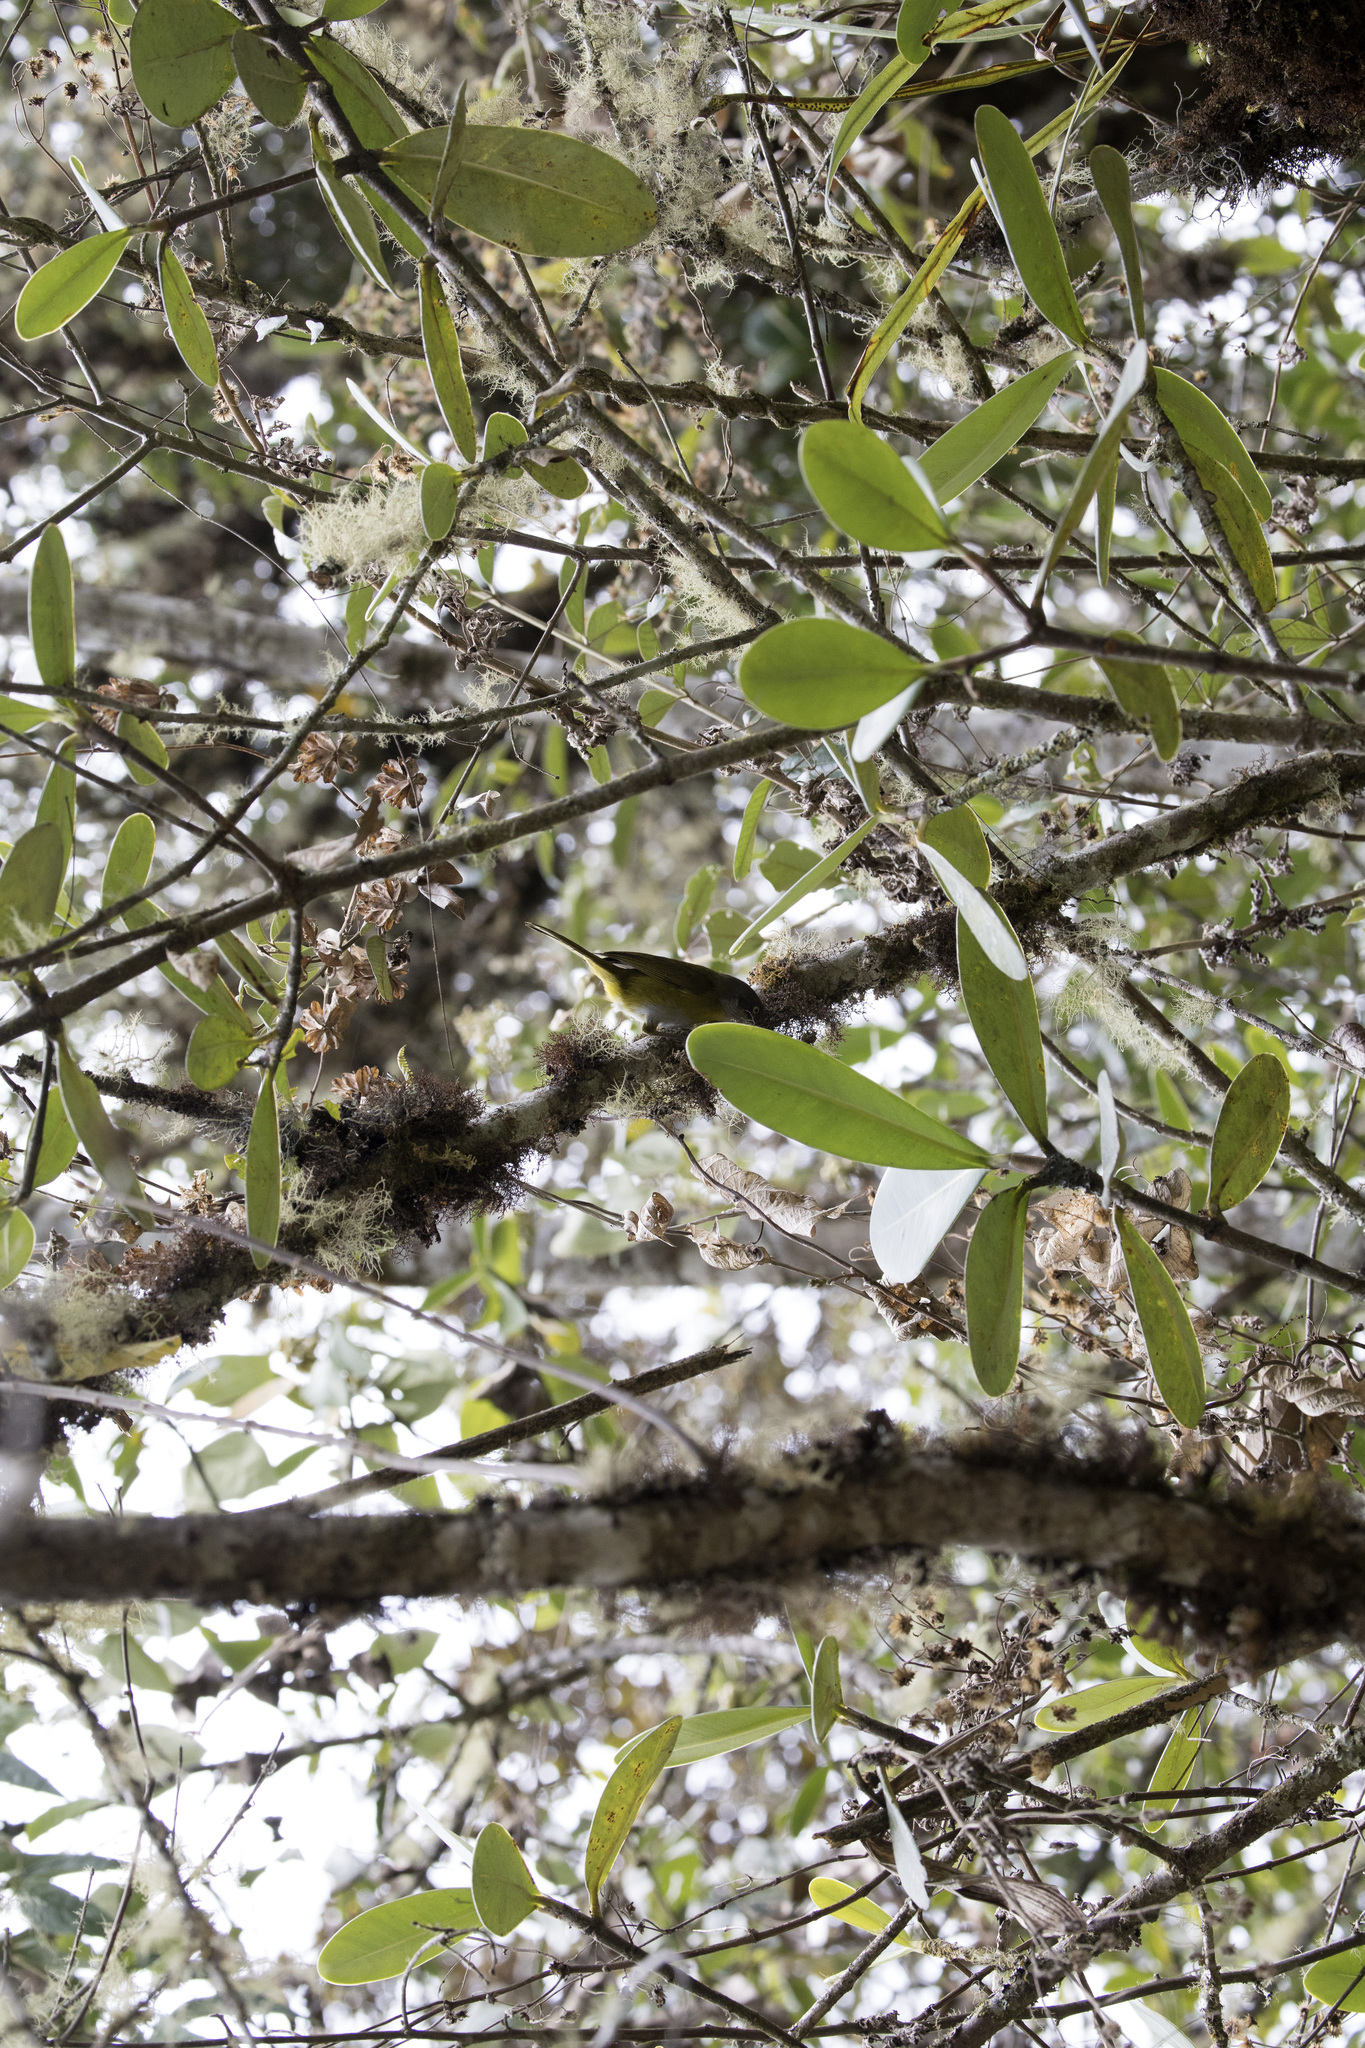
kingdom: Animalia
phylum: Chordata
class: Aves
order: Passeriformes
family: Passerellidae
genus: Chlorospingus
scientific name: Chlorospingus canigularis
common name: Ashy-throated bush-tanager
